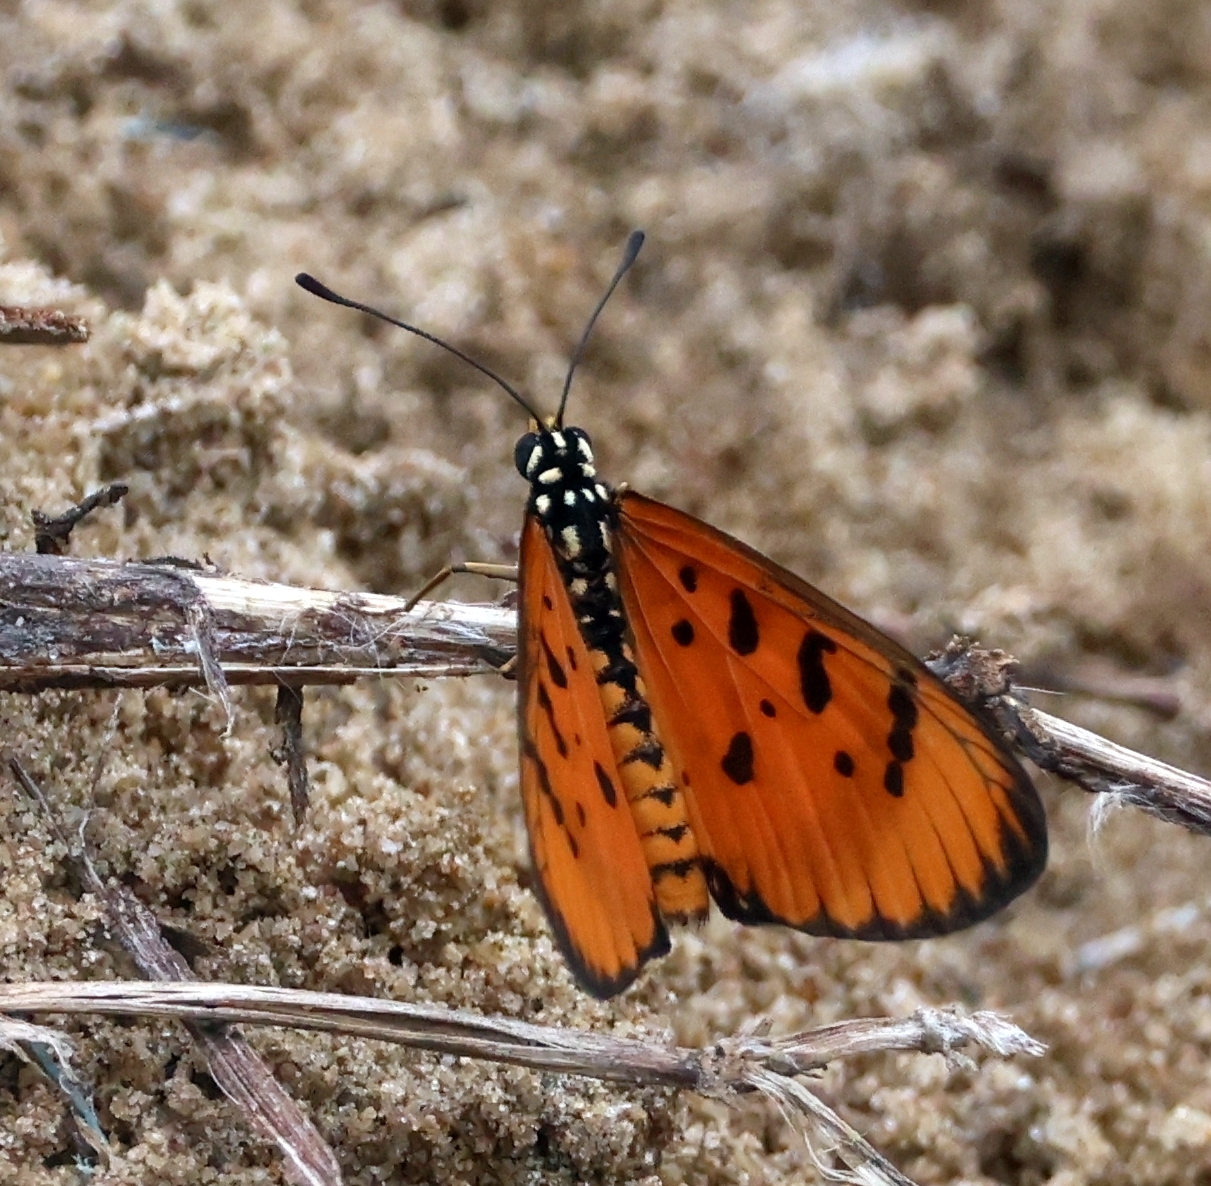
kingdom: Animalia
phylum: Arthropoda
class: Insecta
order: Lepidoptera
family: Nymphalidae
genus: Acraea
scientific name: Acraea terpsicore
